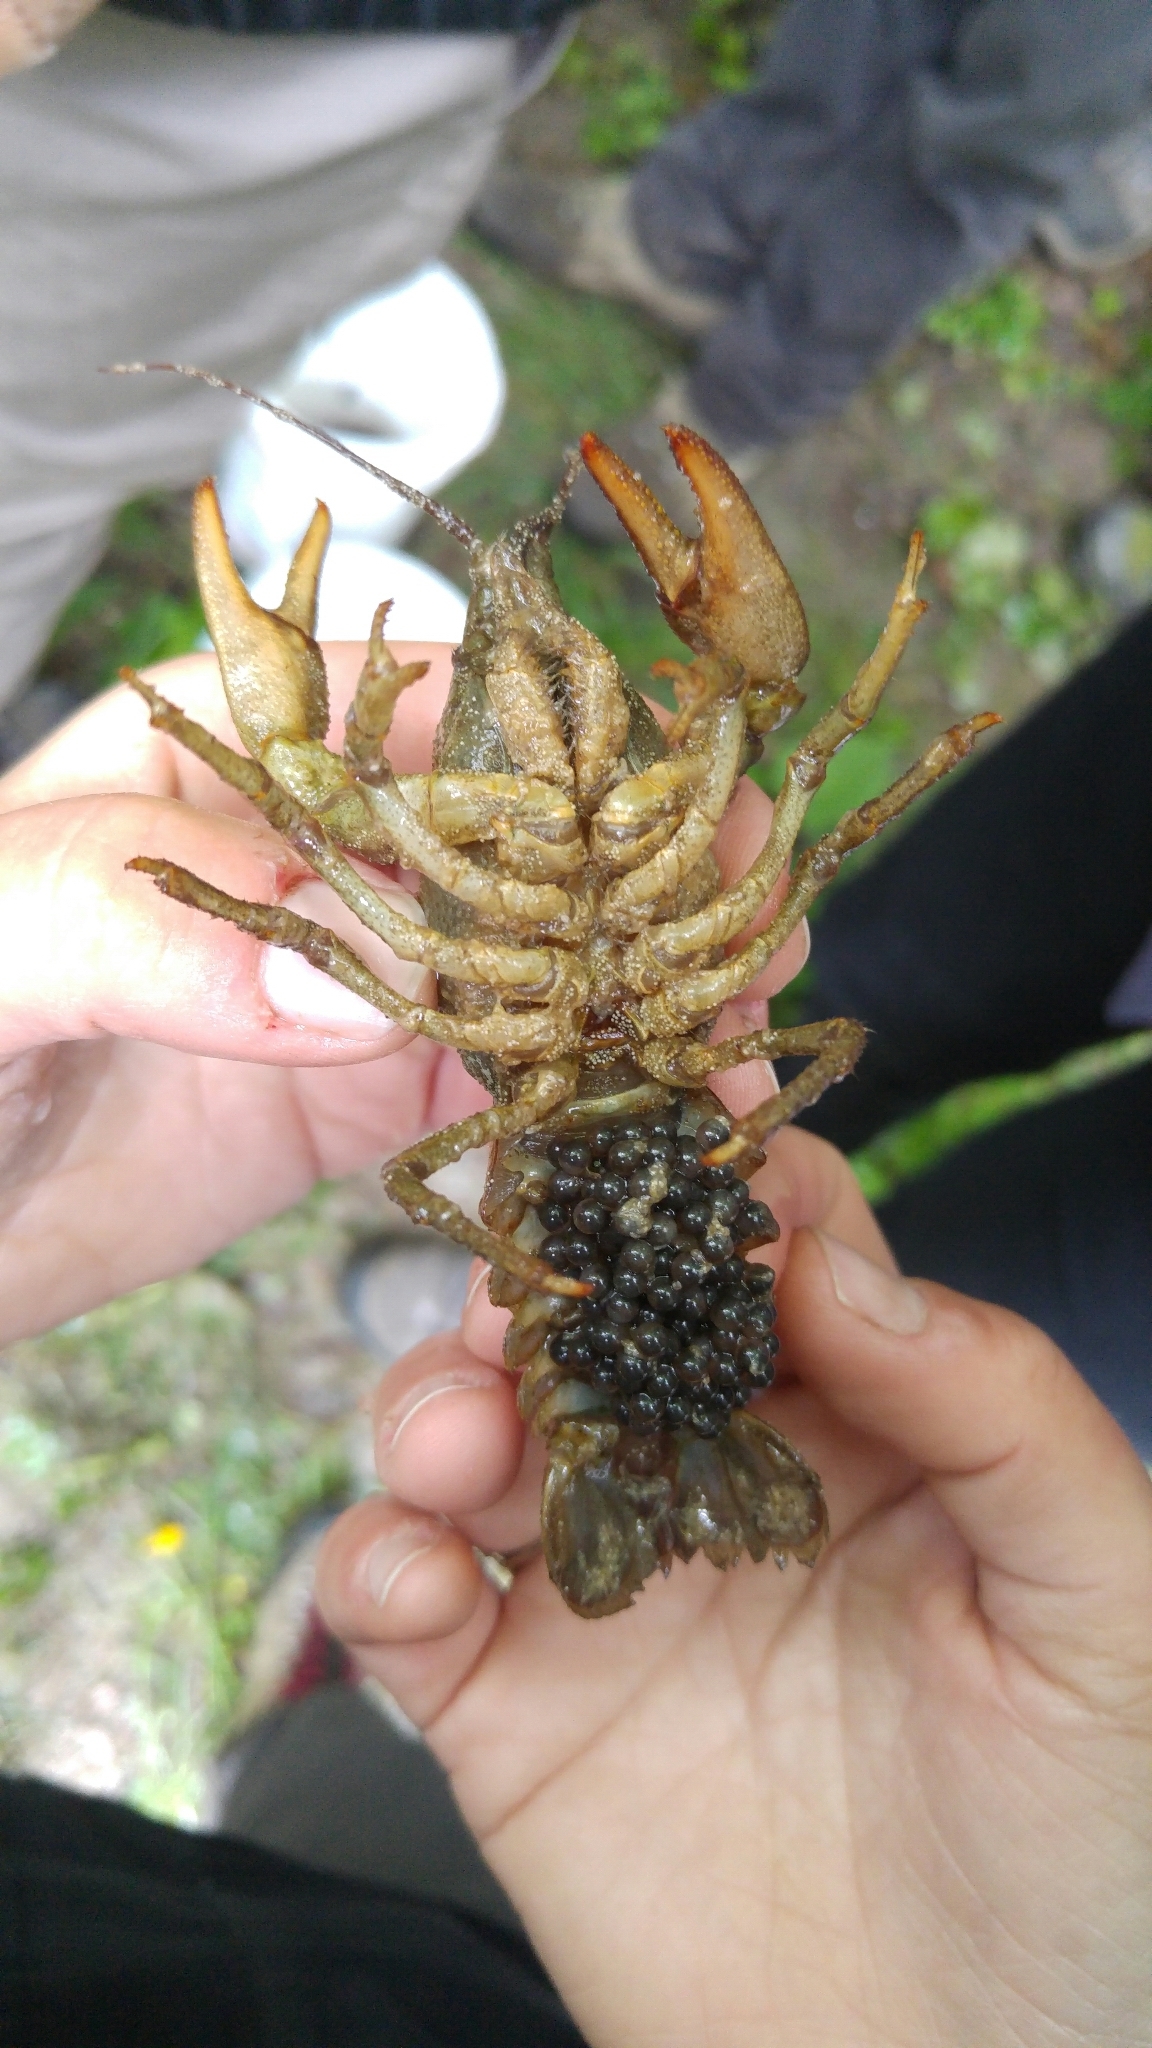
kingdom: Animalia
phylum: Arthropoda
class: Malacostraca
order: Decapoda
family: Astacidae
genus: Austropotamobius
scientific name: Austropotamobius pallipes
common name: White-clawed crayfish
